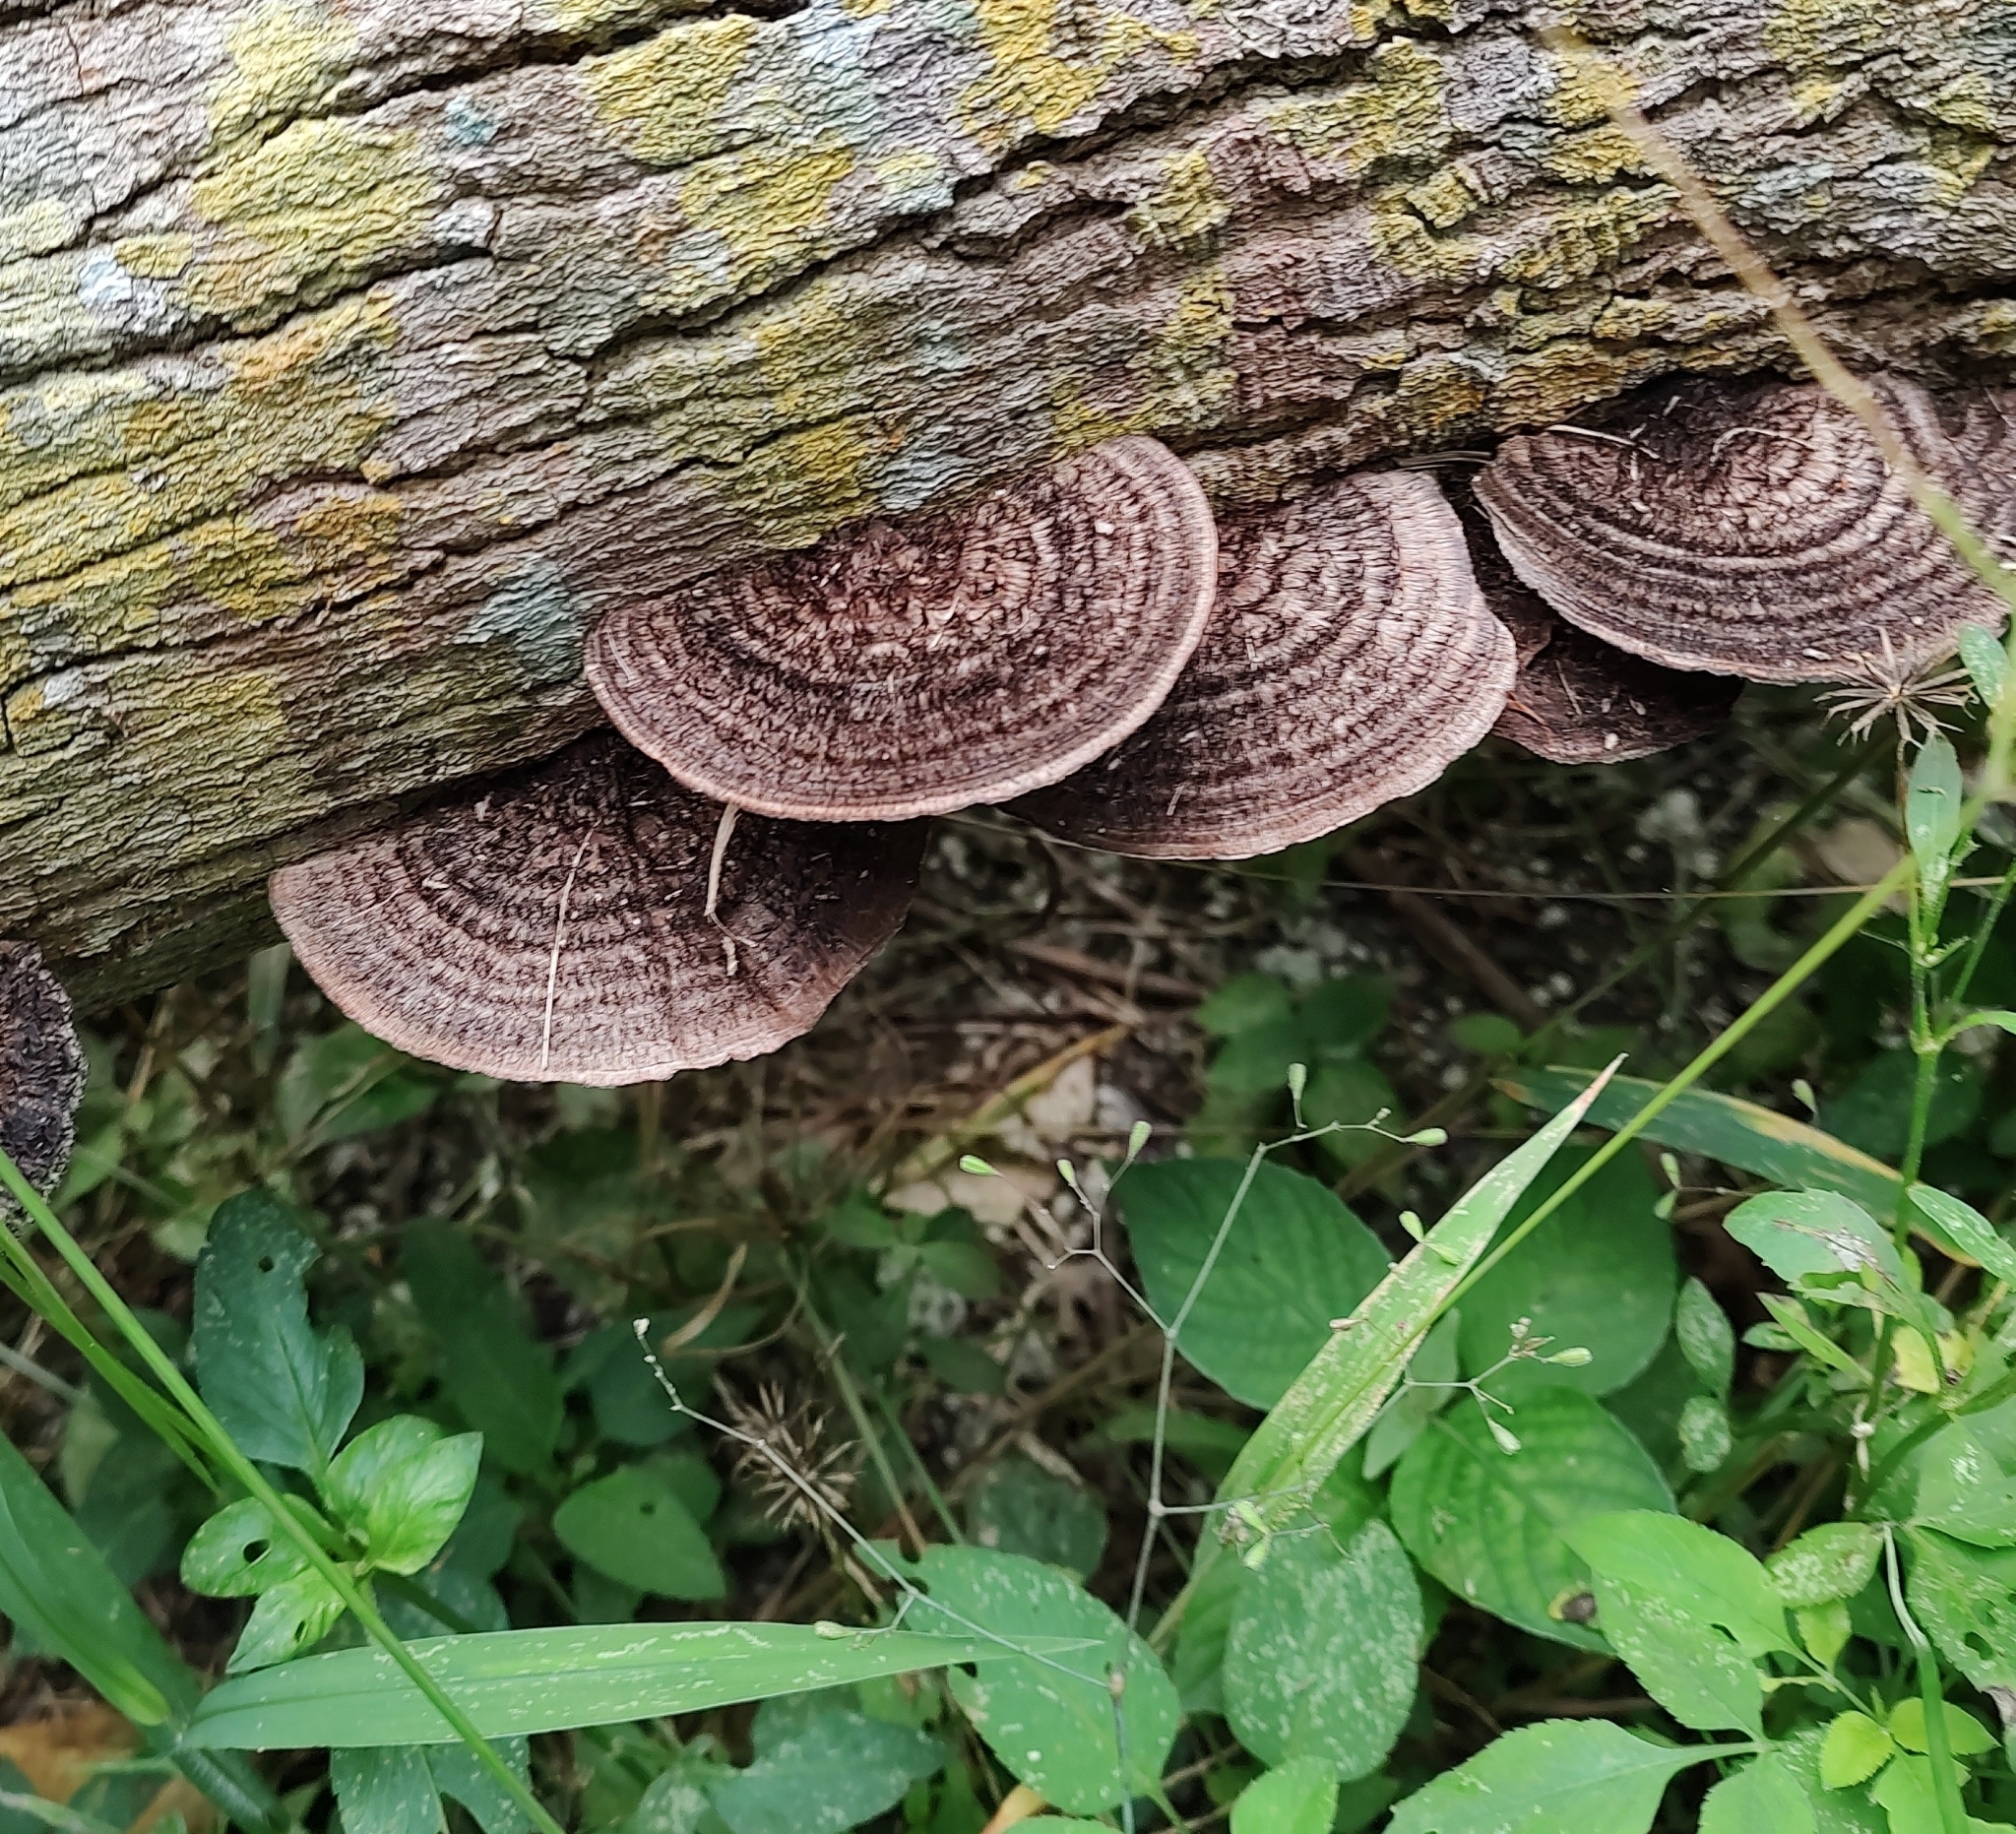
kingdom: Fungi
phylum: Basidiomycota
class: Agaricomycetes
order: Polyporales
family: Cerrenaceae
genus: Cerrena
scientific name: Cerrena hydnoides
